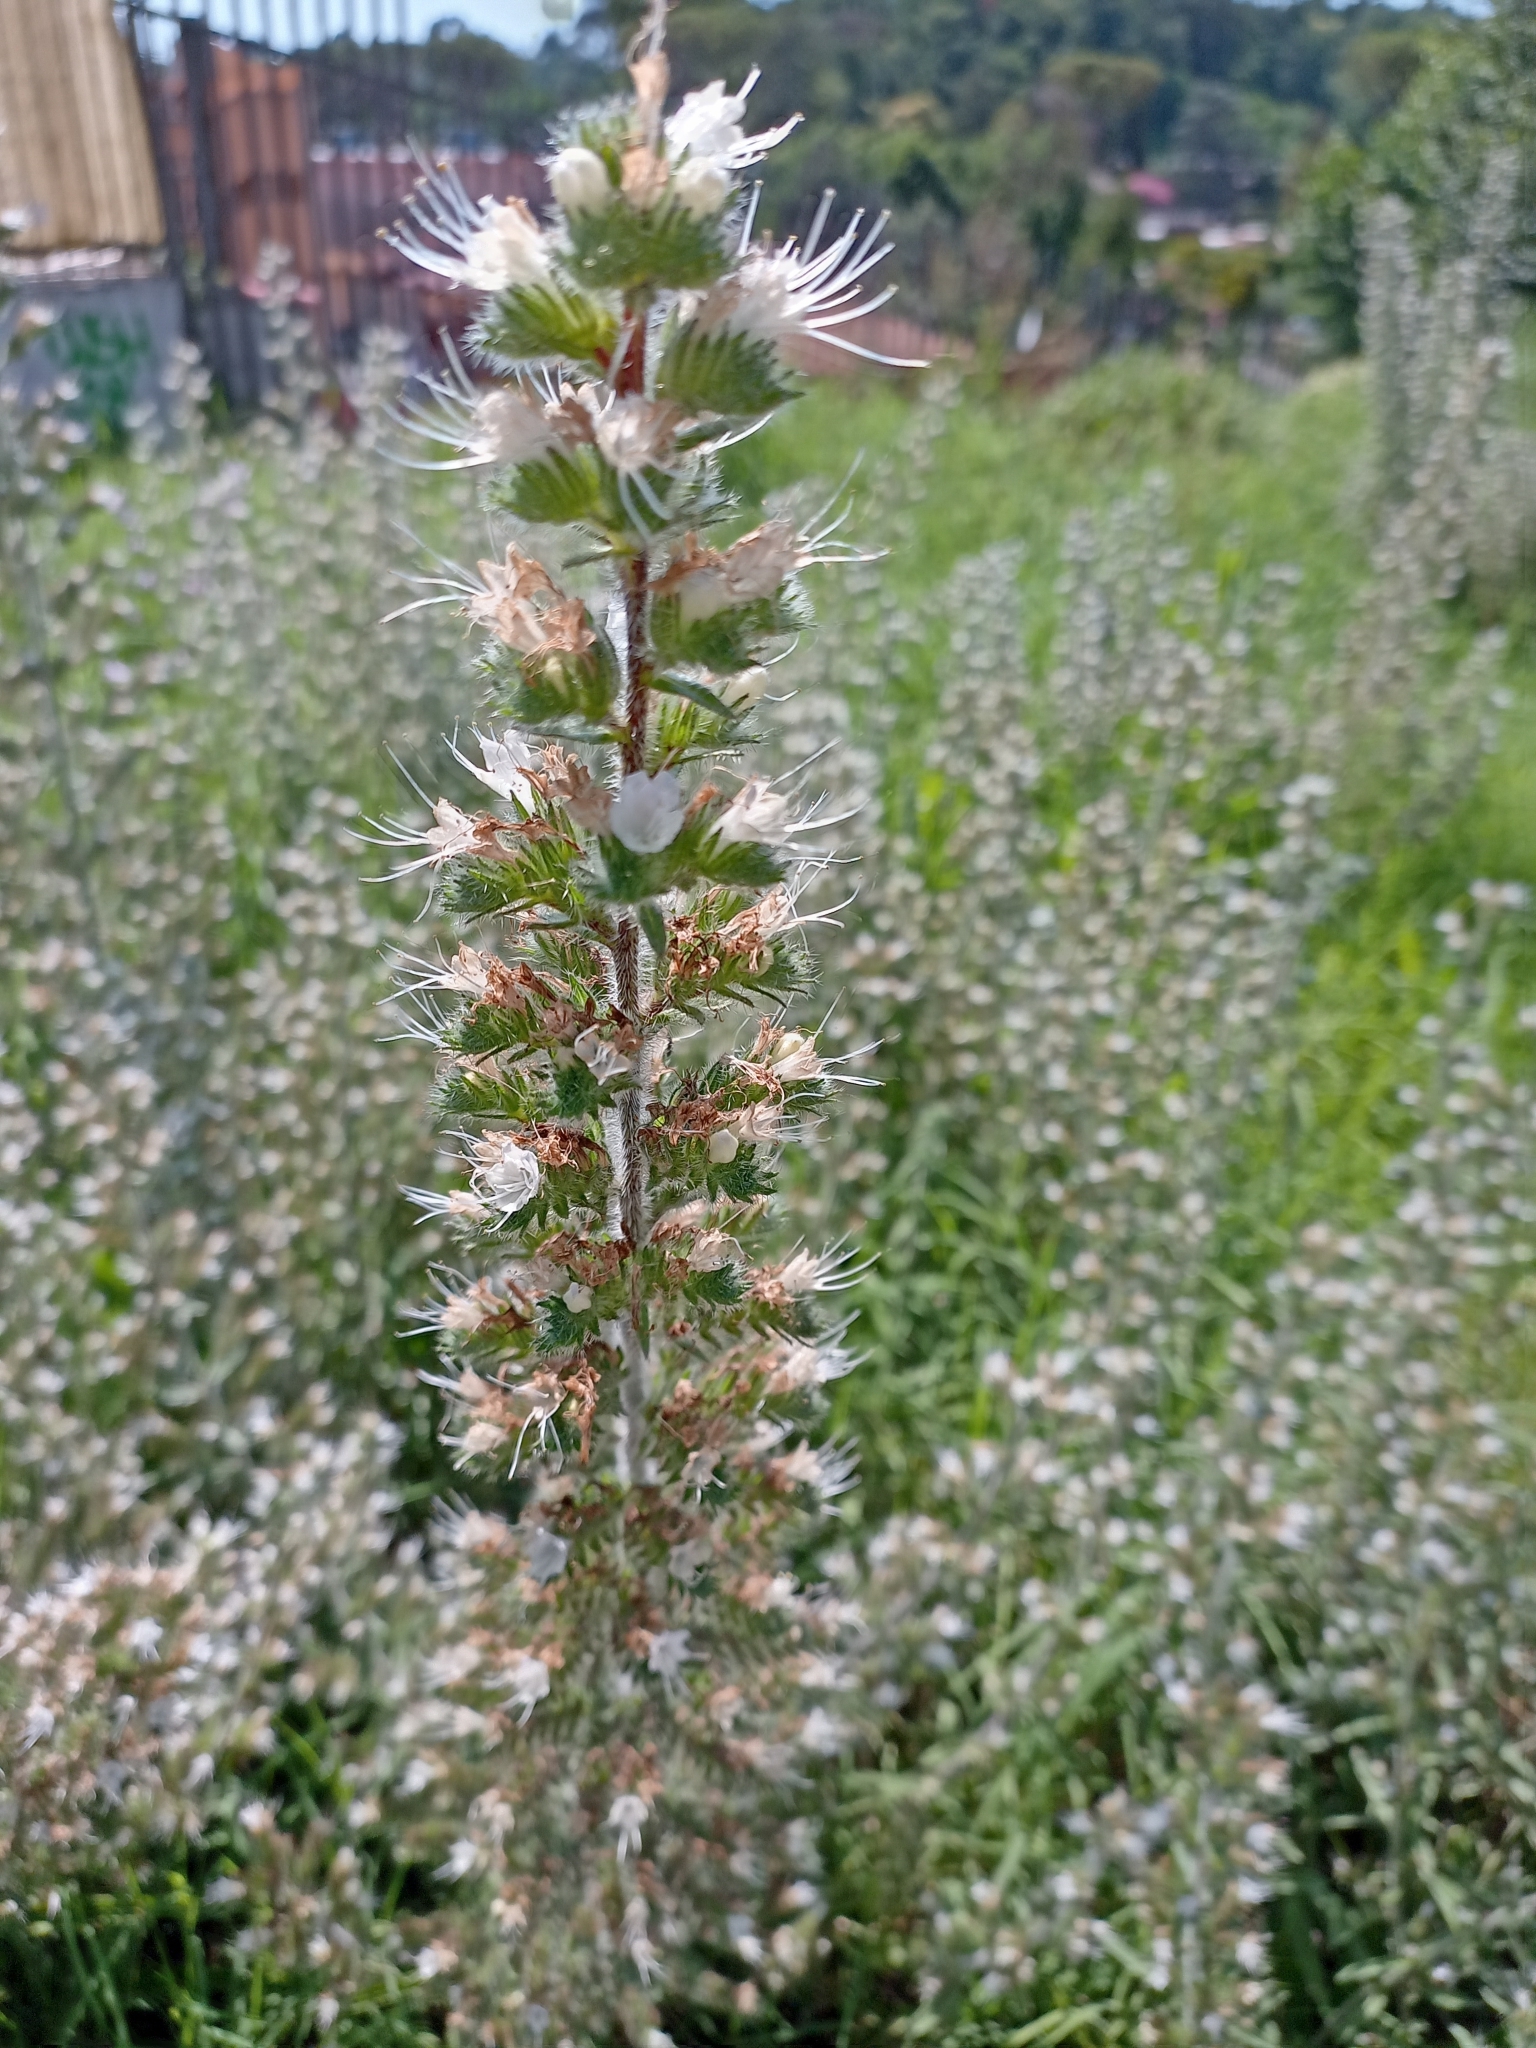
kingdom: Plantae
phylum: Tracheophyta
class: Magnoliopsida
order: Boraginales
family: Boraginaceae
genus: Echium
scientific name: Echium italicum
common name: Italian viper's bugloss
